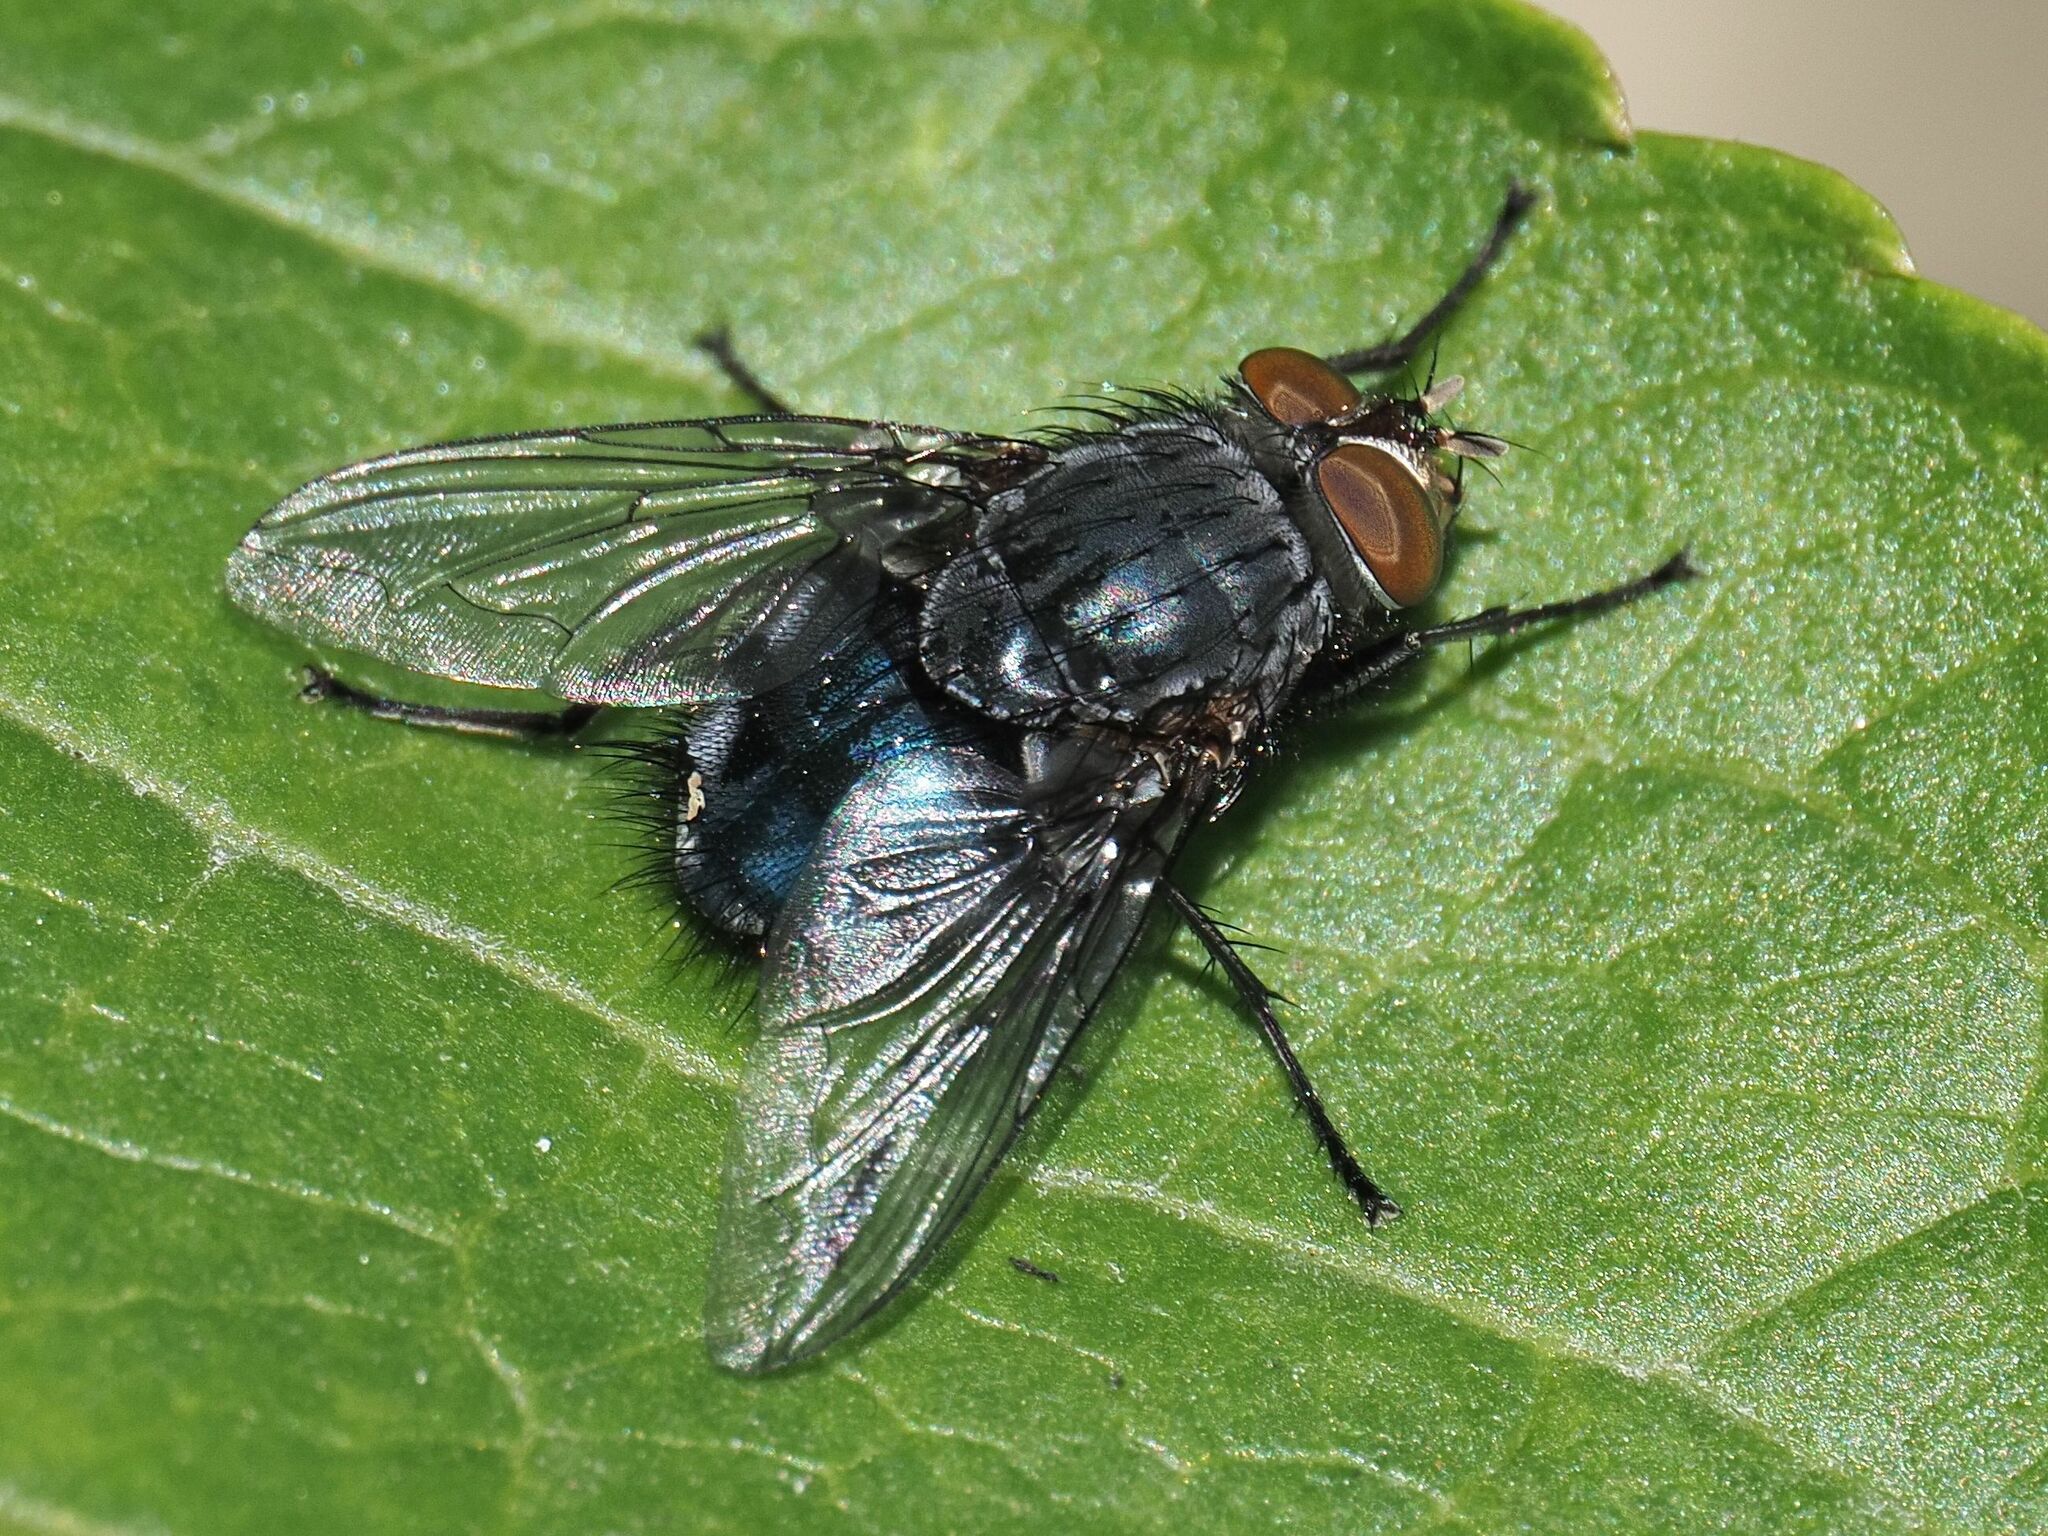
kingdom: Animalia
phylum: Arthropoda
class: Insecta
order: Diptera
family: Calliphoridae
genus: Calliphora
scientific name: Calliphora vicina
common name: Common blow flie
